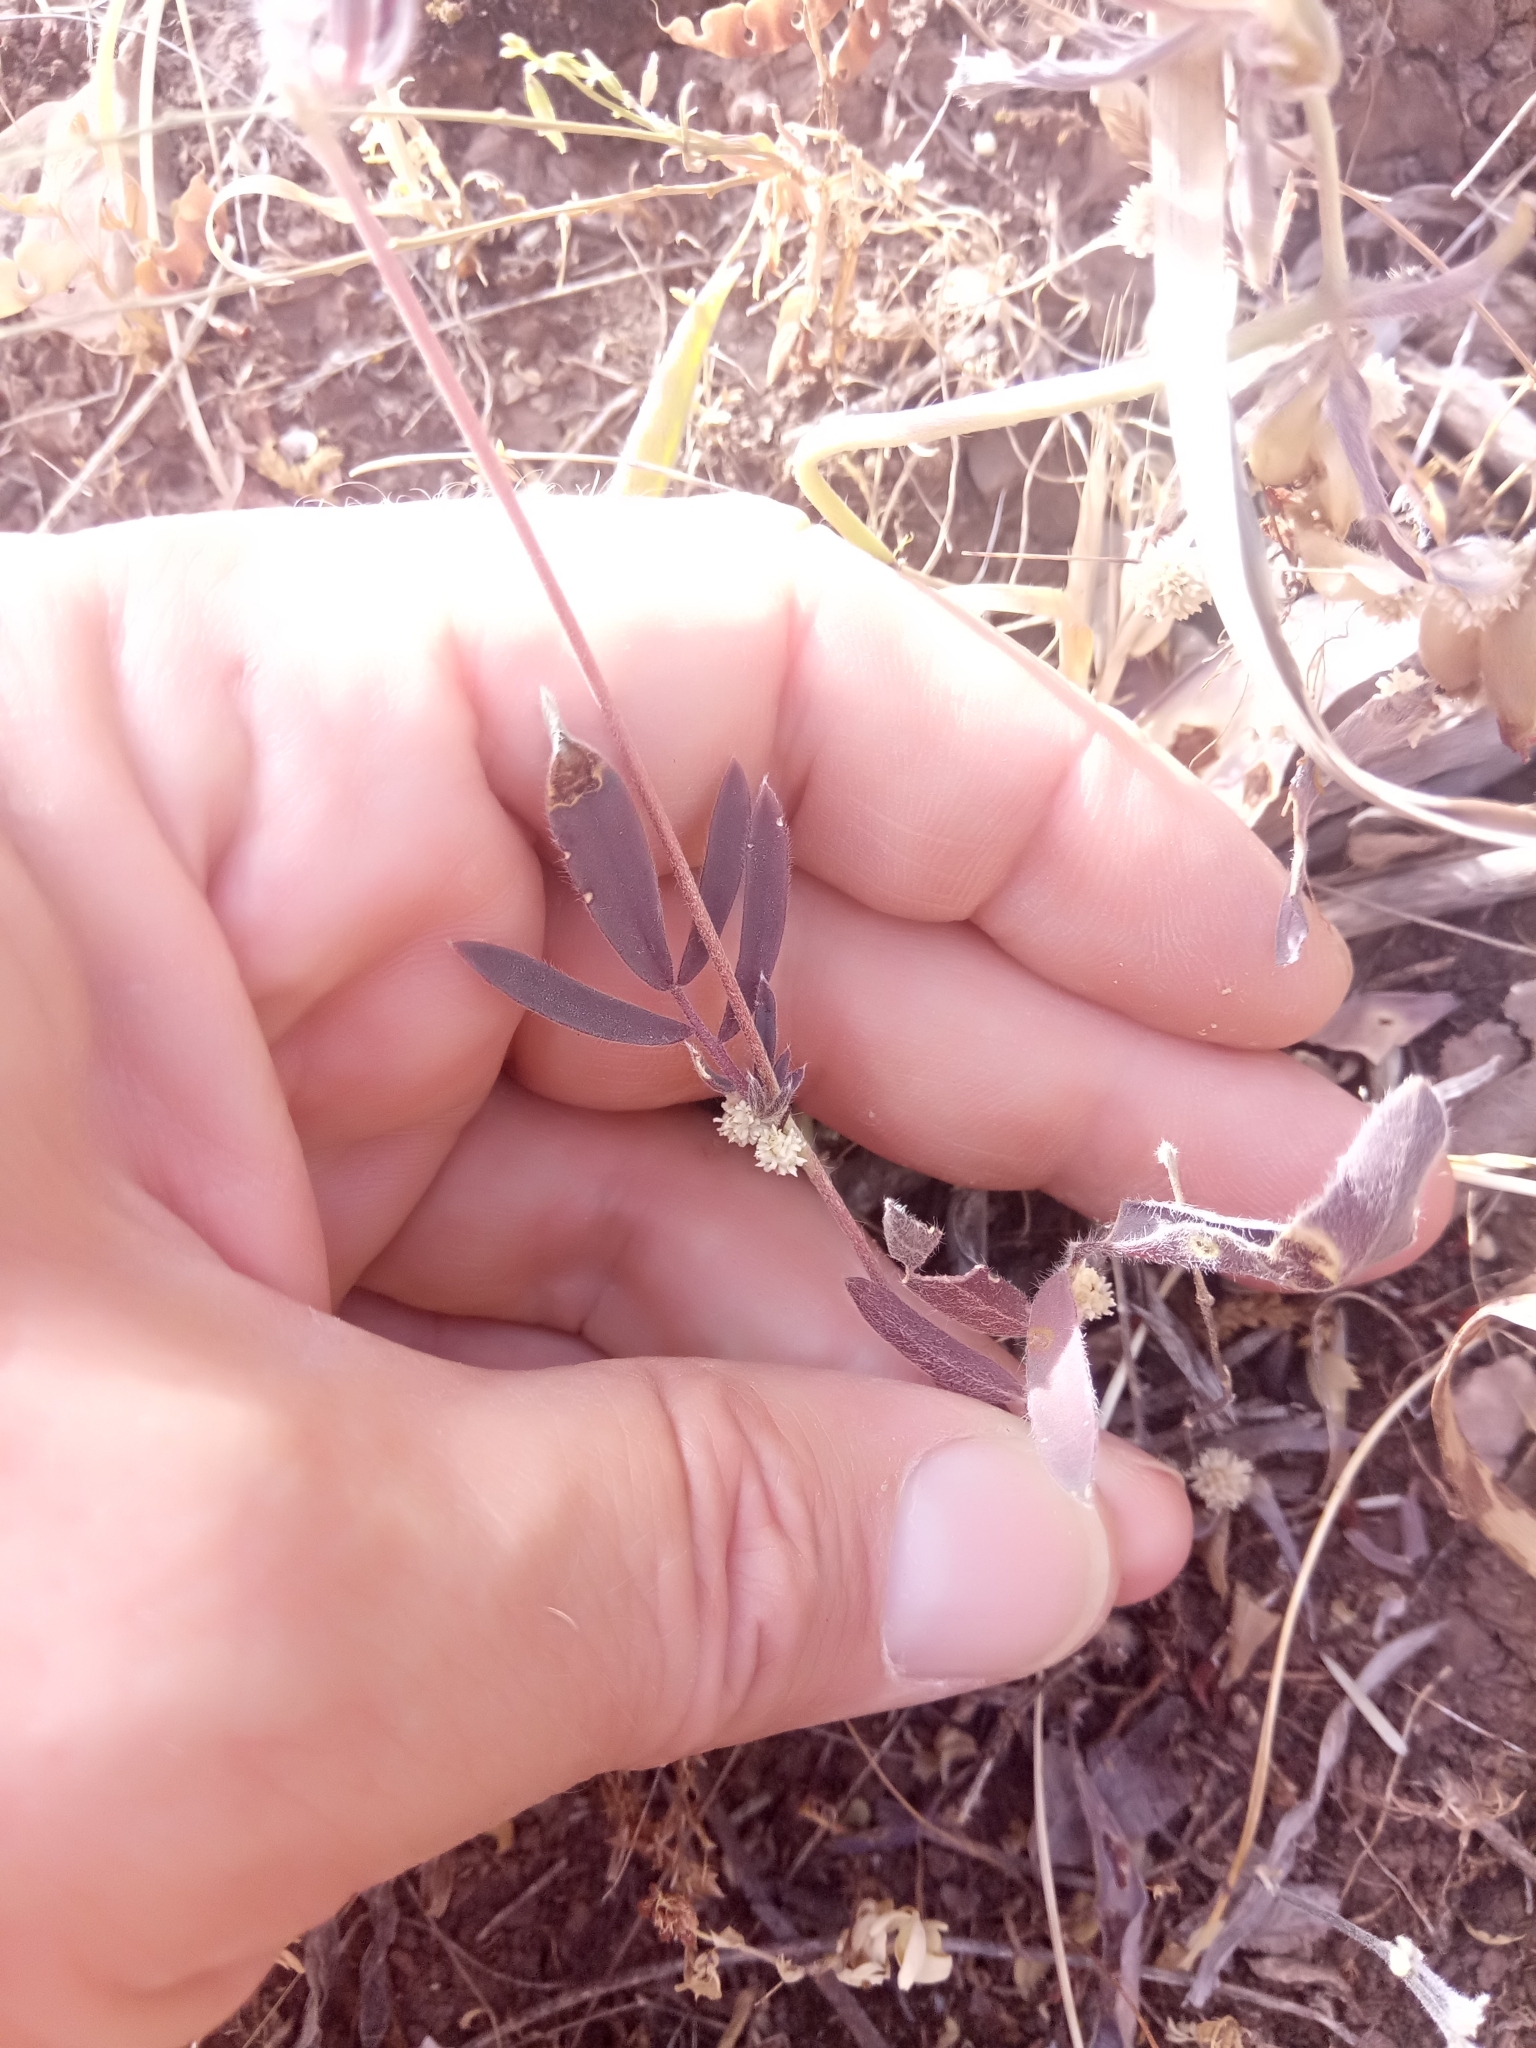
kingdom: Plantae
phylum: Tracheophyta
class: Magnoliopsida
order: Fabales
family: Fabaceae
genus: Anthyllis
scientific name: Anthyllis vulneraria
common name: Kidney vetch
